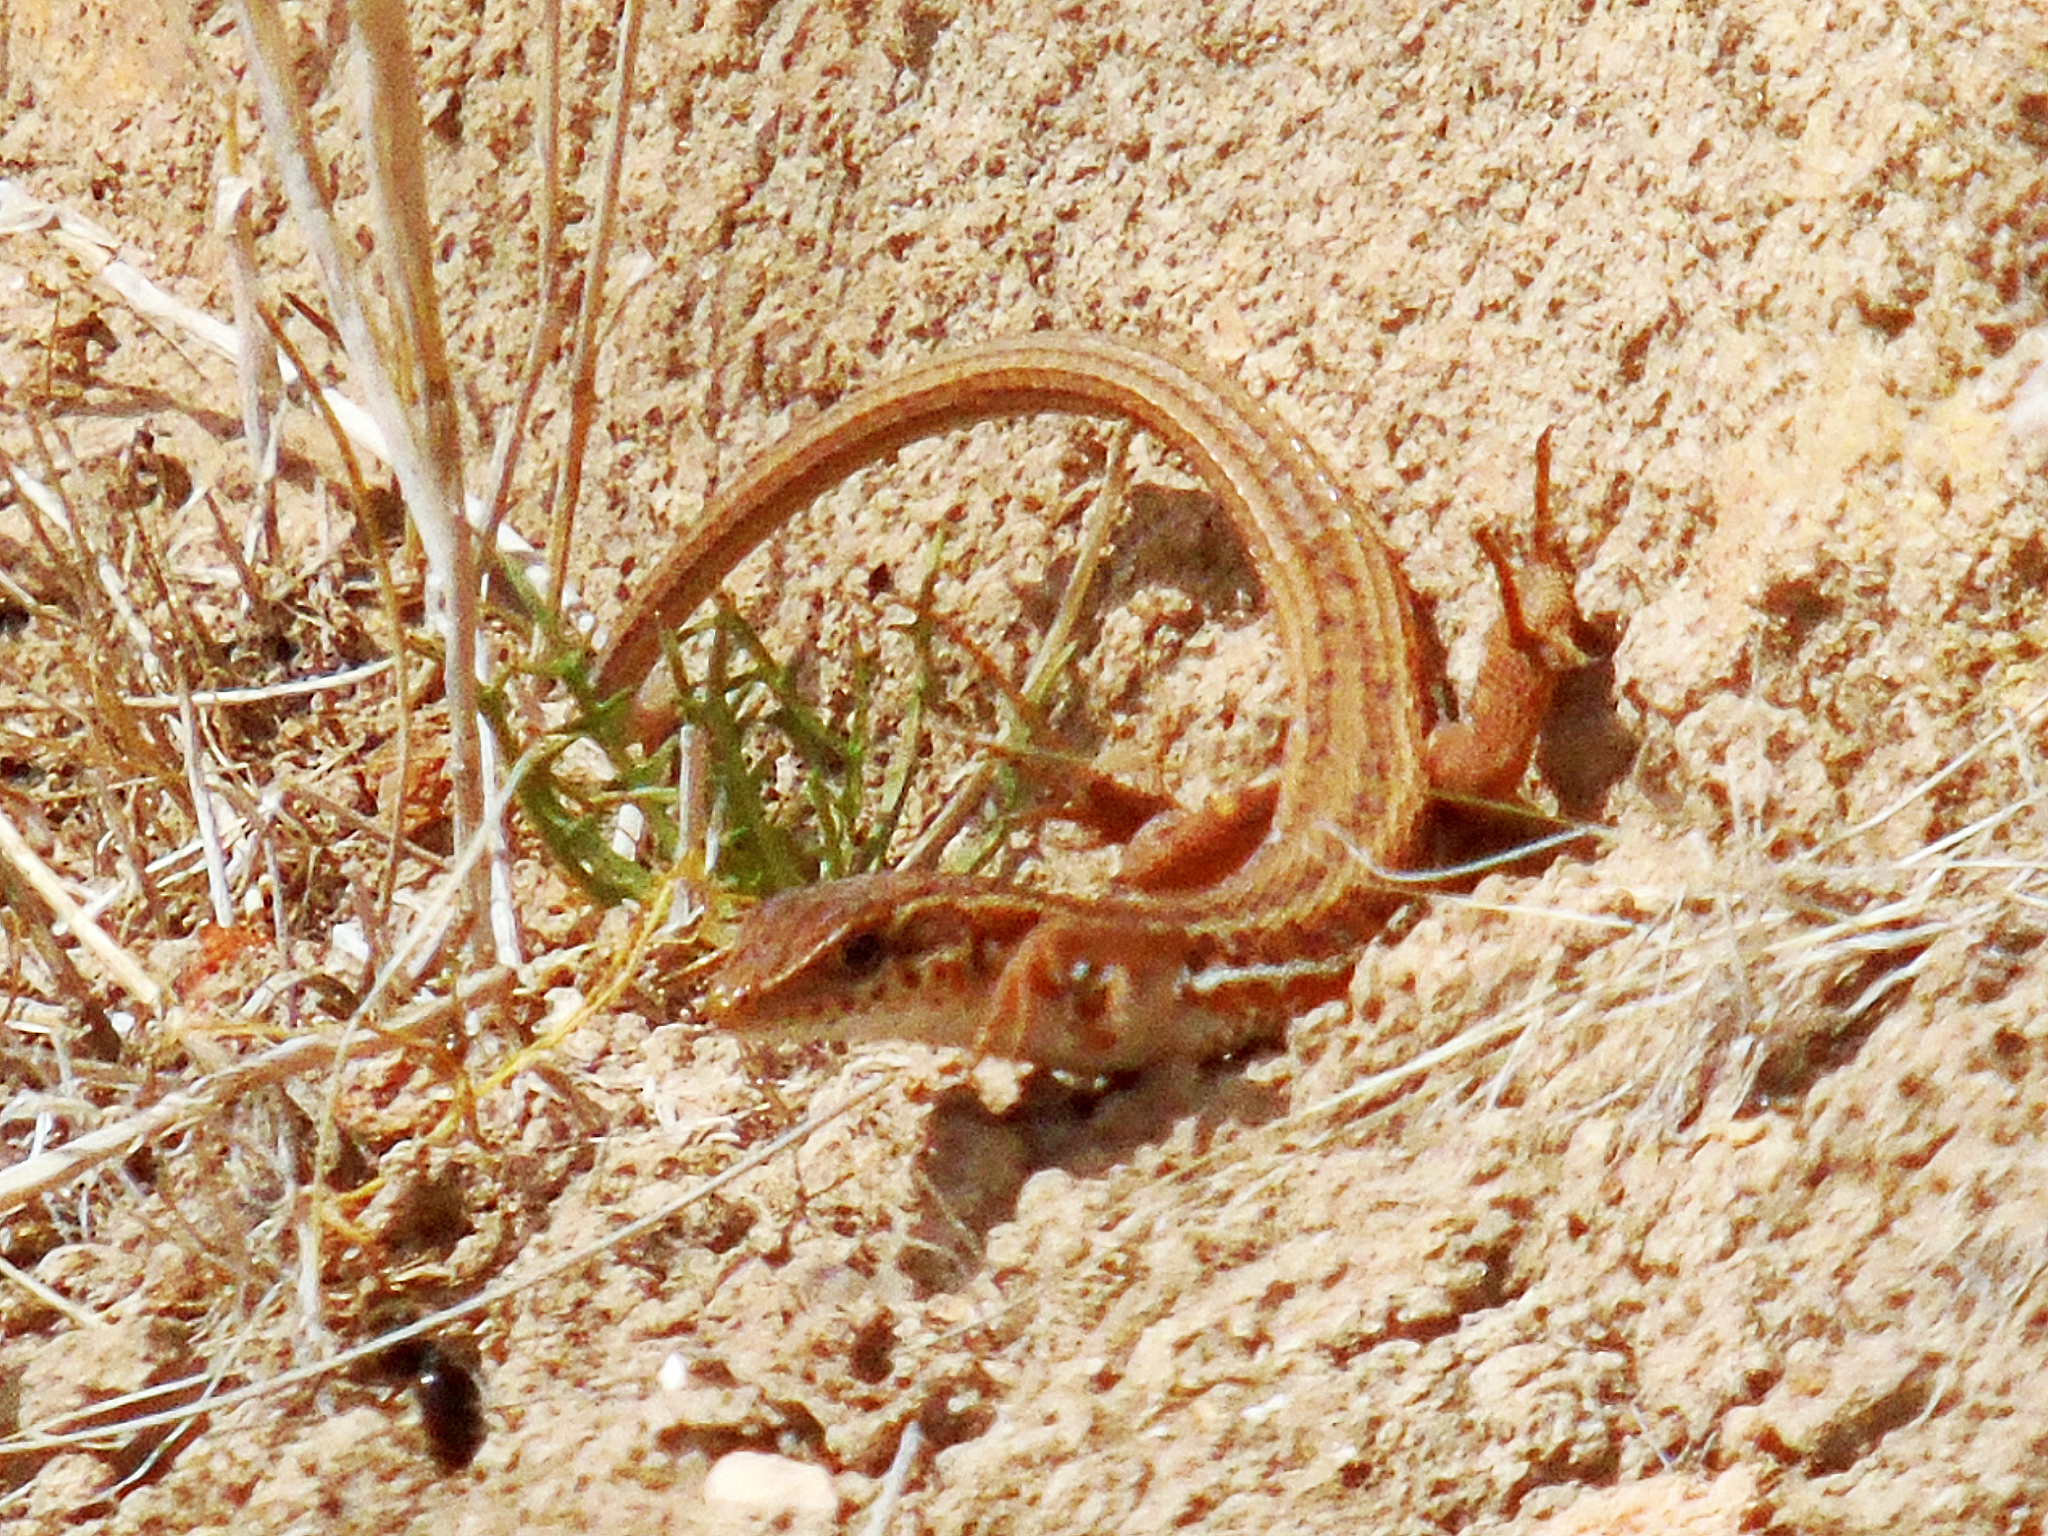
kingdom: Animalia
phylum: Chordata
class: Squamata
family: Lacertidae
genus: Ophisops
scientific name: Ophisops elegans
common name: Snake-eyed lizard
